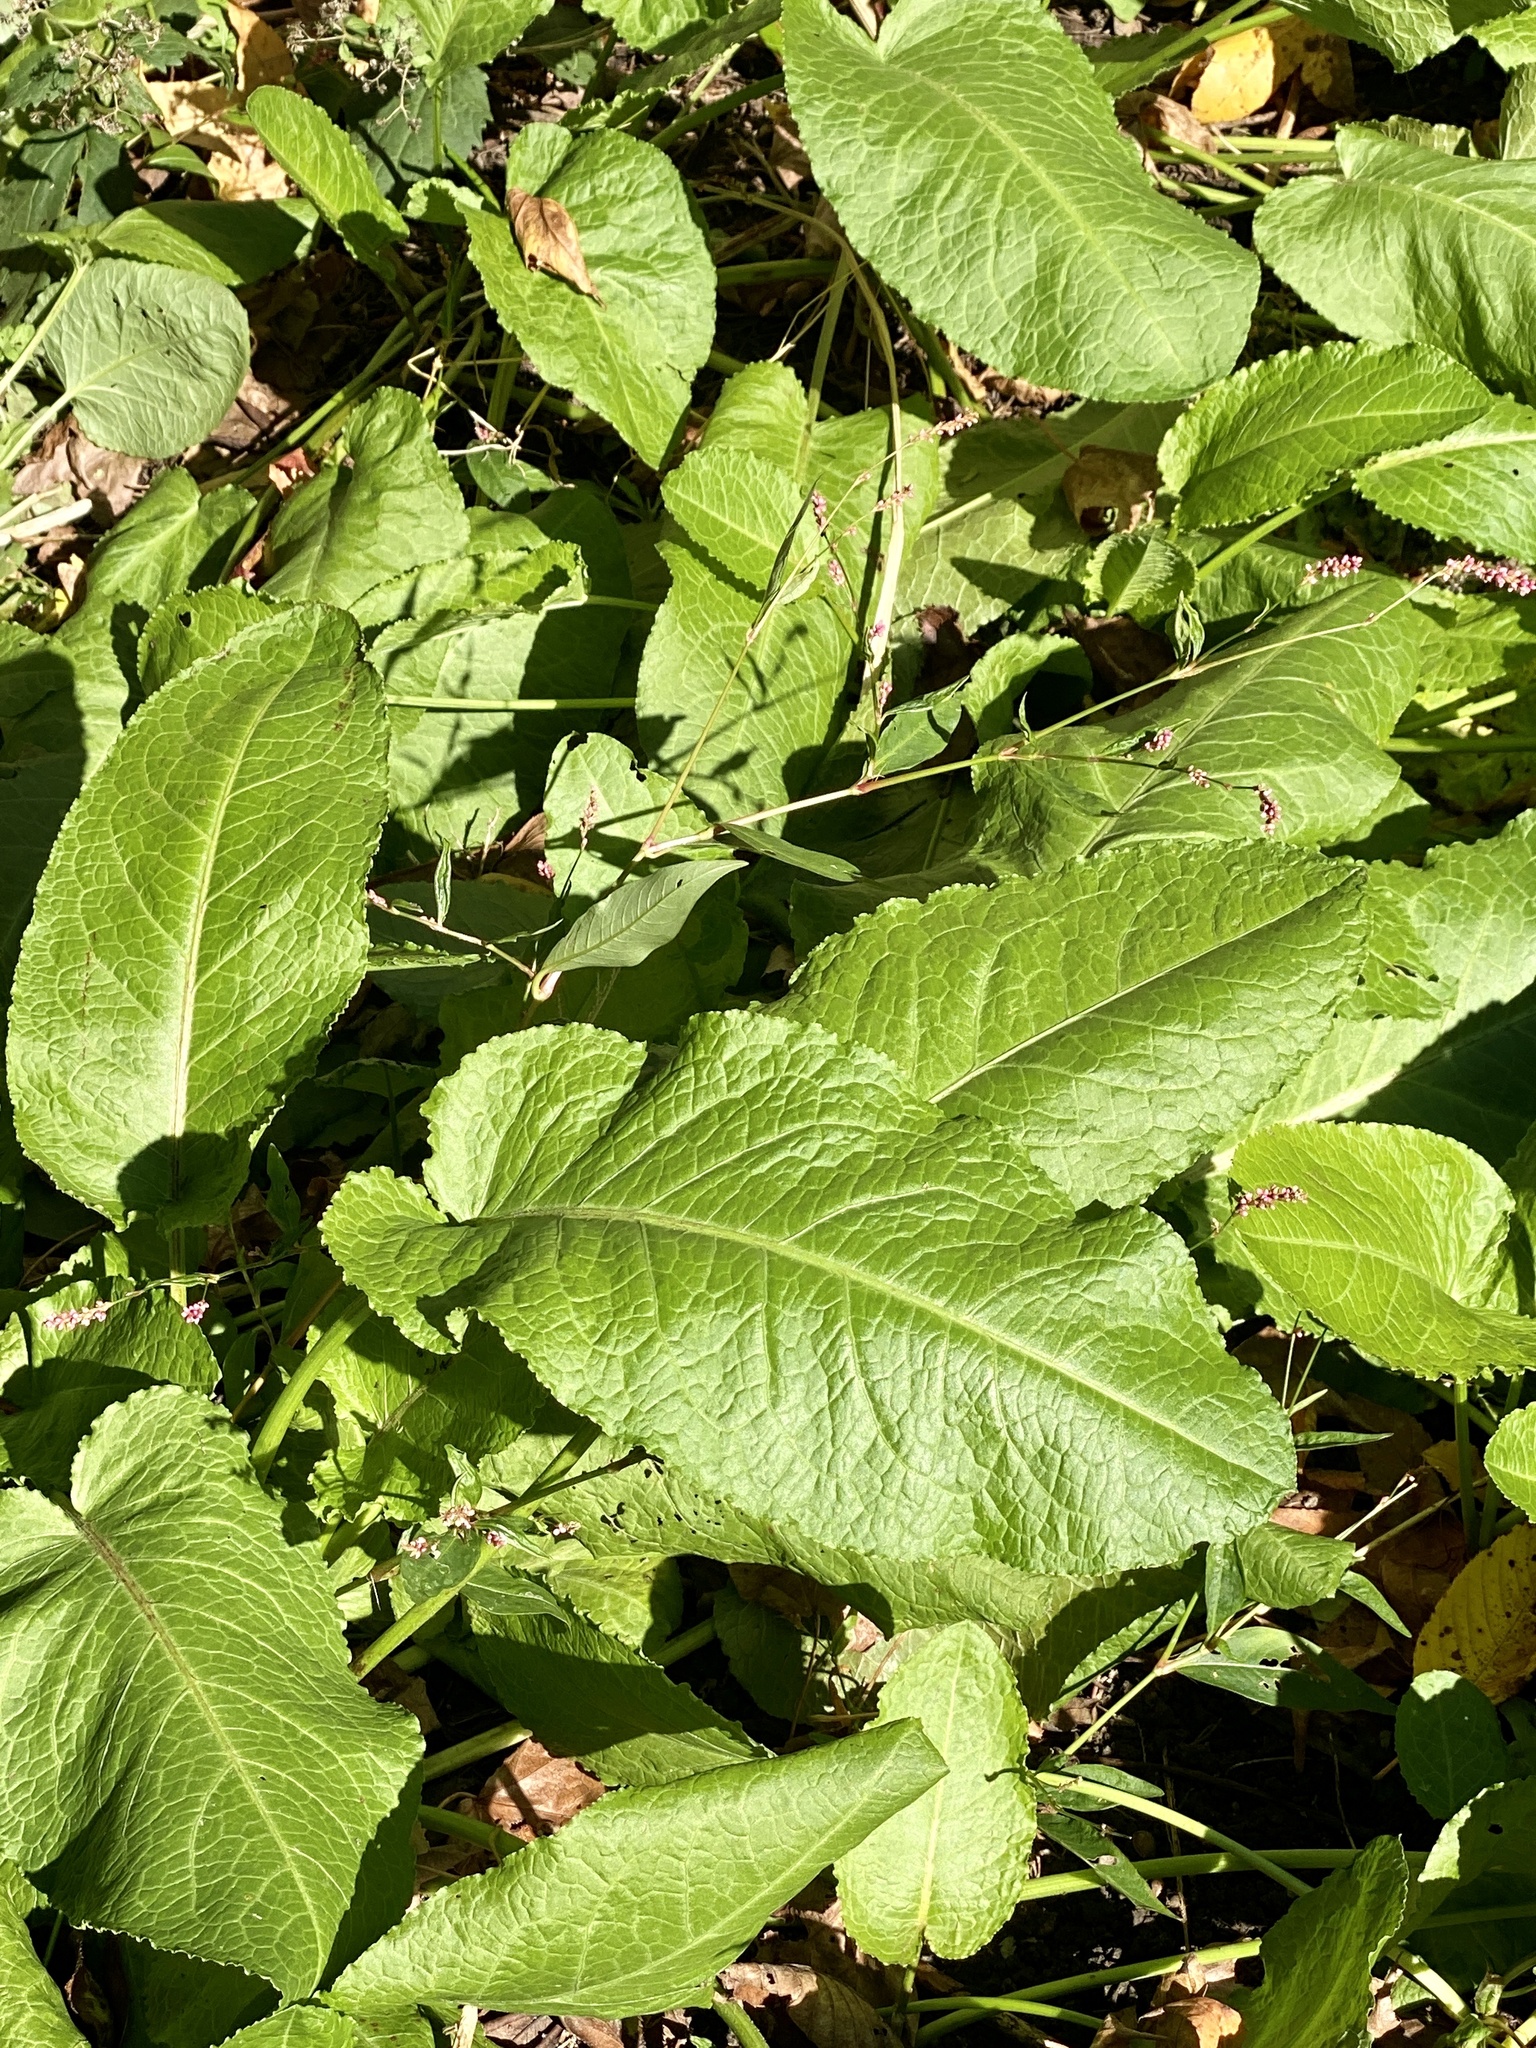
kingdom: Plantae
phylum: Tracheophyta
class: Magnoliopsida
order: Caryophyllales
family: Polygonaceae
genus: Rumex
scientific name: Rumex obtusifolius
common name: Bitter dock
